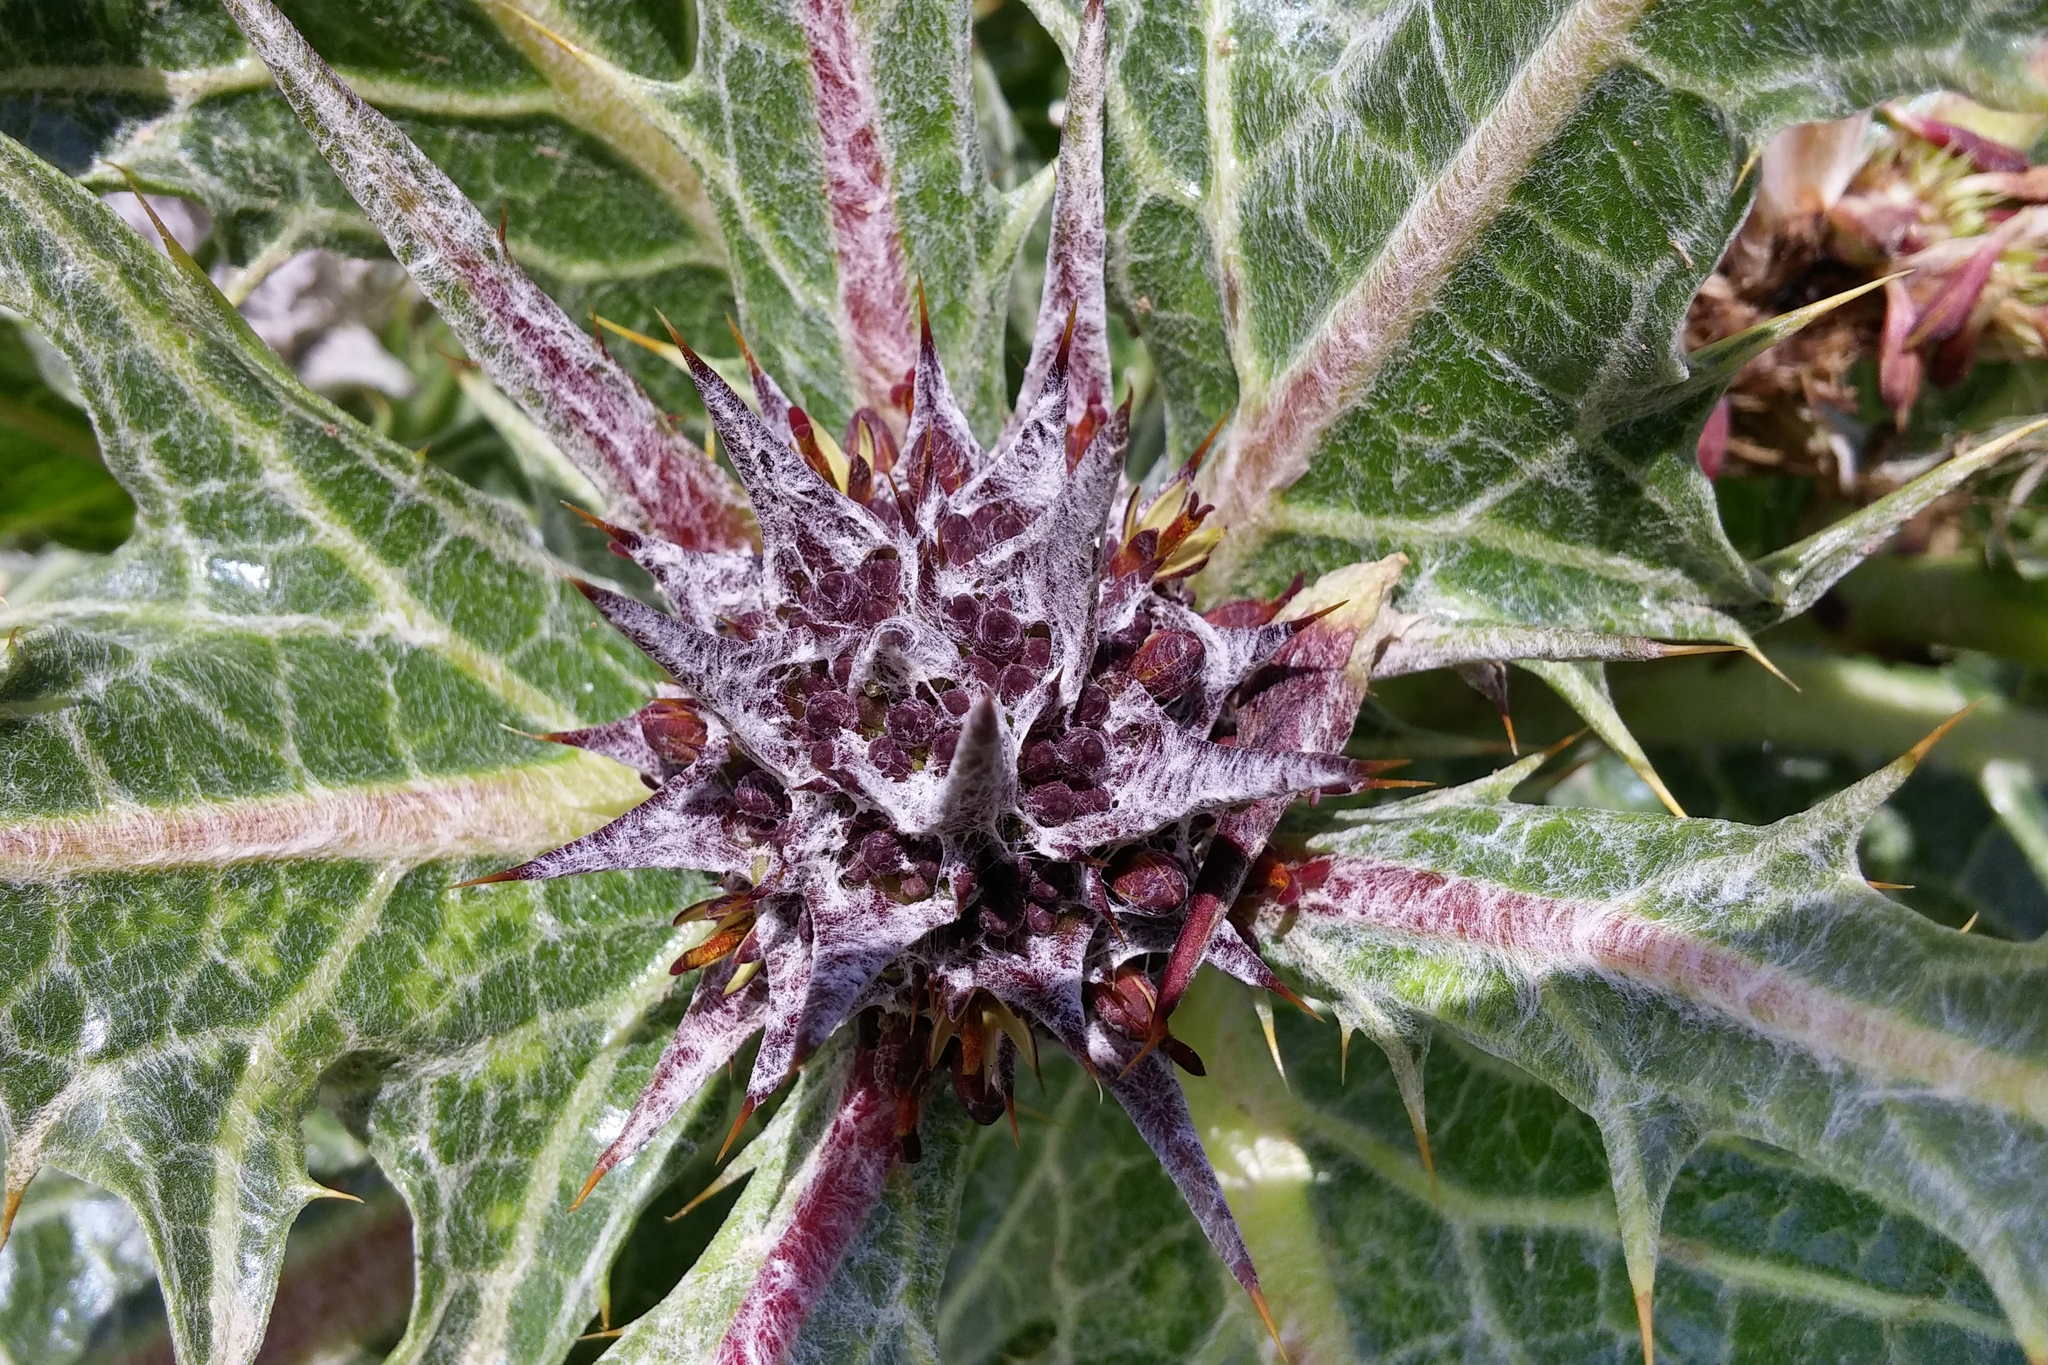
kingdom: Plantae
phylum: Tracheophyta
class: Magnoliopsida
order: Asterales
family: Asteraceae
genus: Gundelia
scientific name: Gundelia tournefortii
